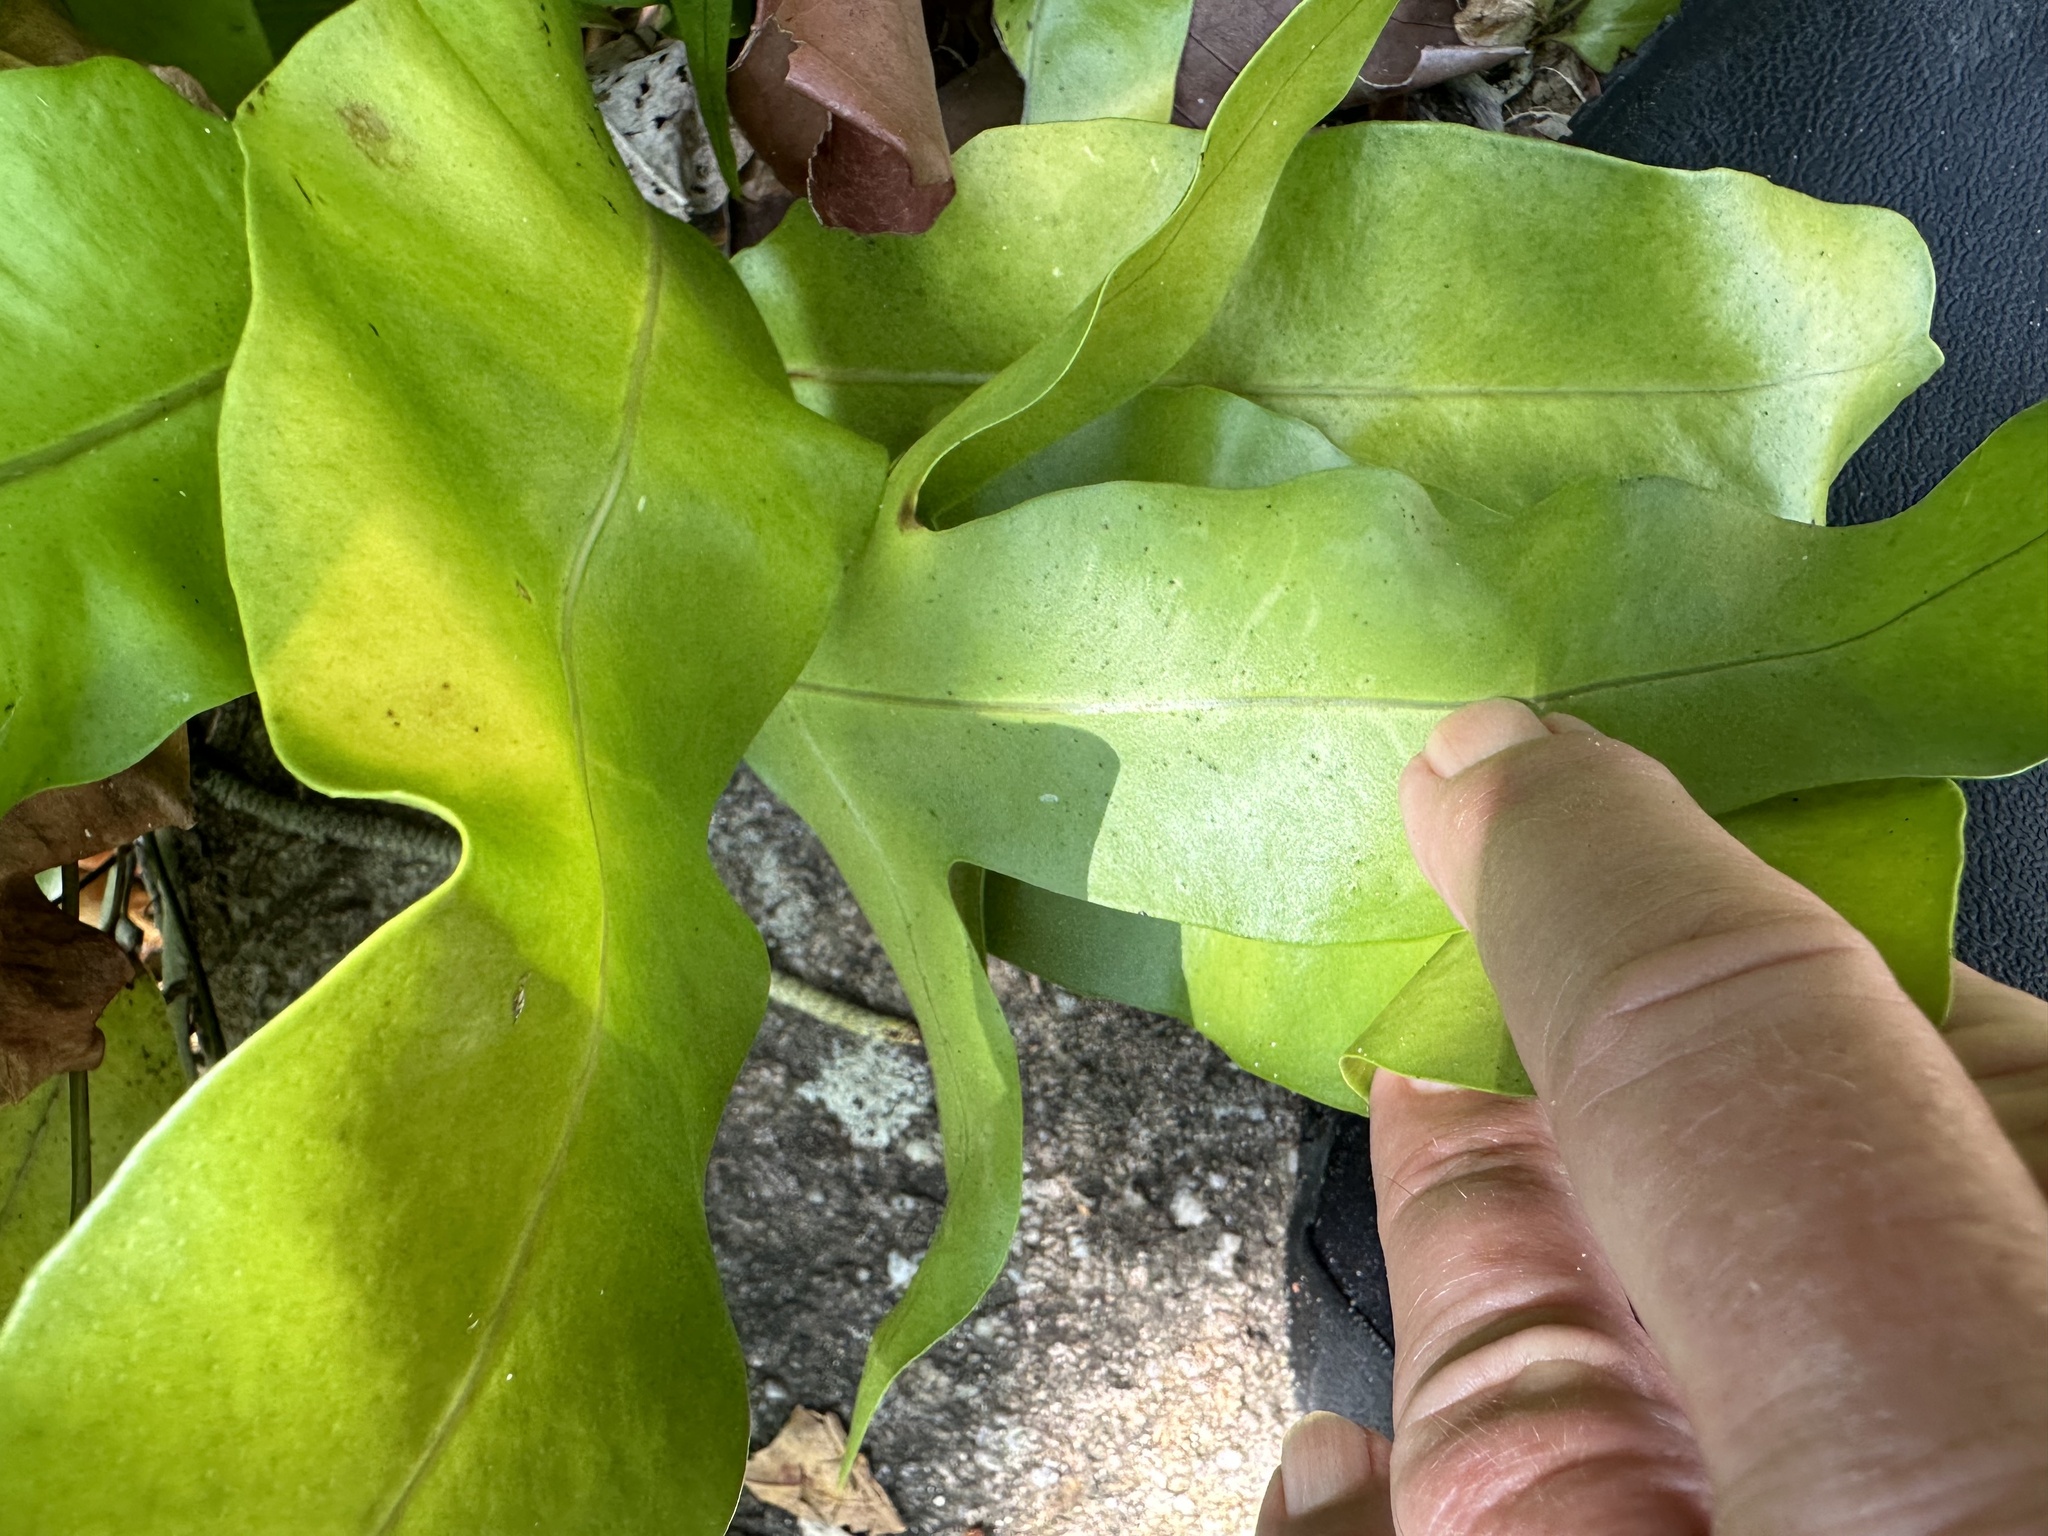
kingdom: Plantae
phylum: Tracheophyta
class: Polypodiopsida
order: Polypodiales
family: Polypodiaceae
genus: Microsorum
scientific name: Microsorum scolopendria
